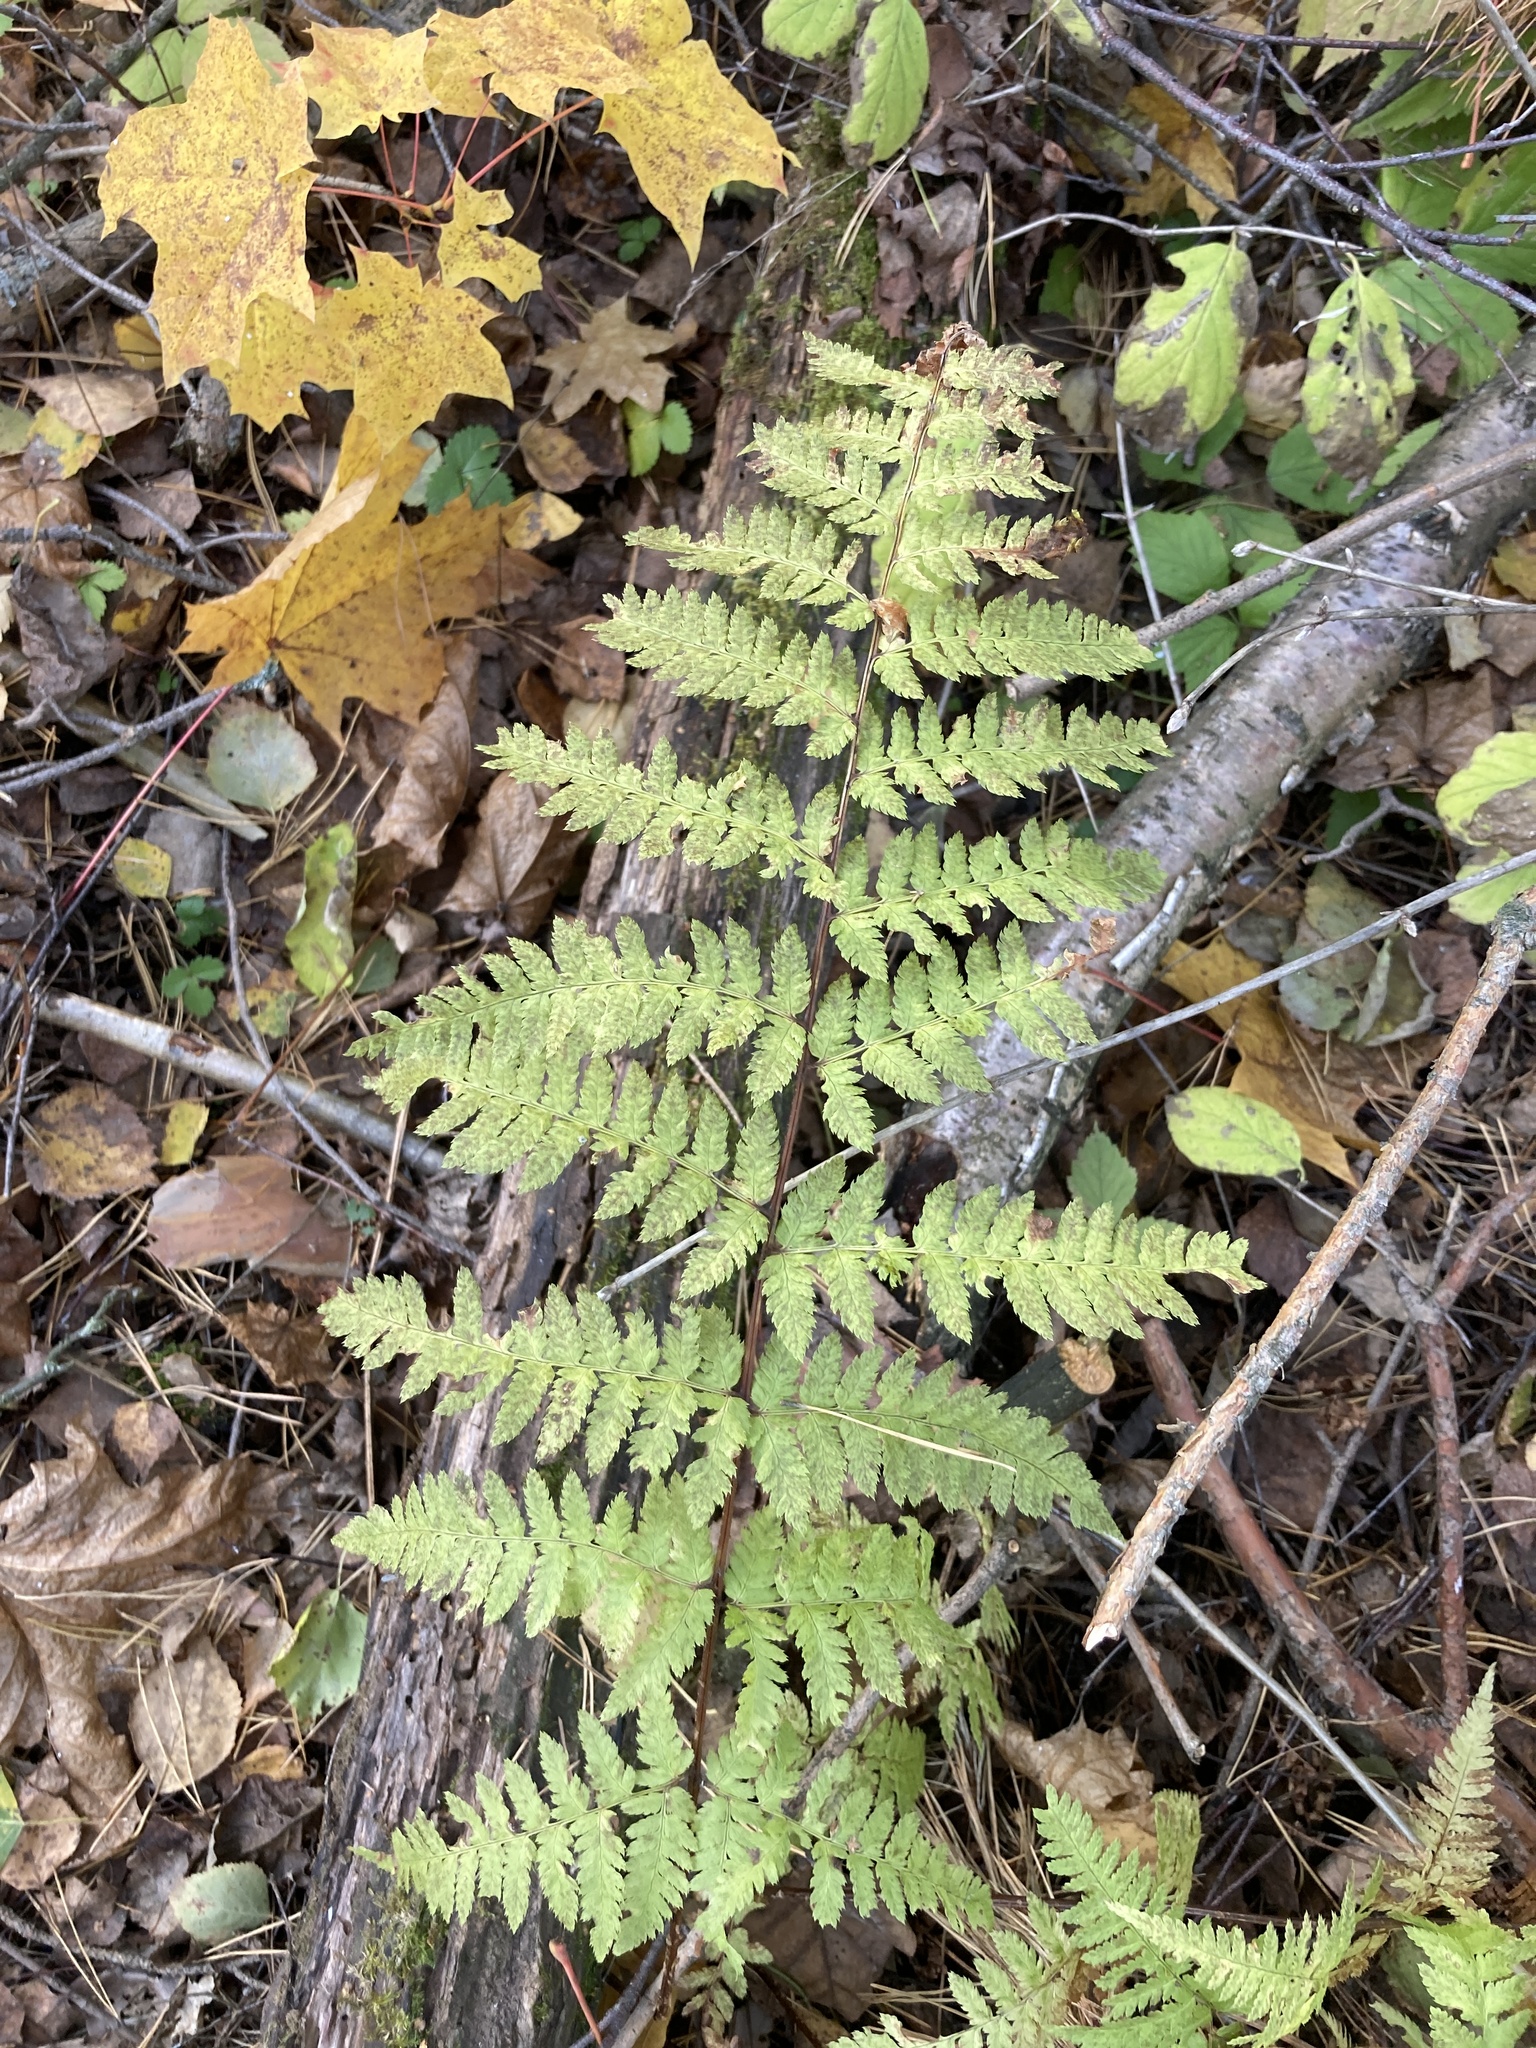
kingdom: Plantae
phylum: Tracheophyta
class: Polypodiopsida
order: Polypodiales
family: Dryopteridaceae
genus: Dryopteris
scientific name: Dryopteris carthusiana
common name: Narrow buckler-fern
